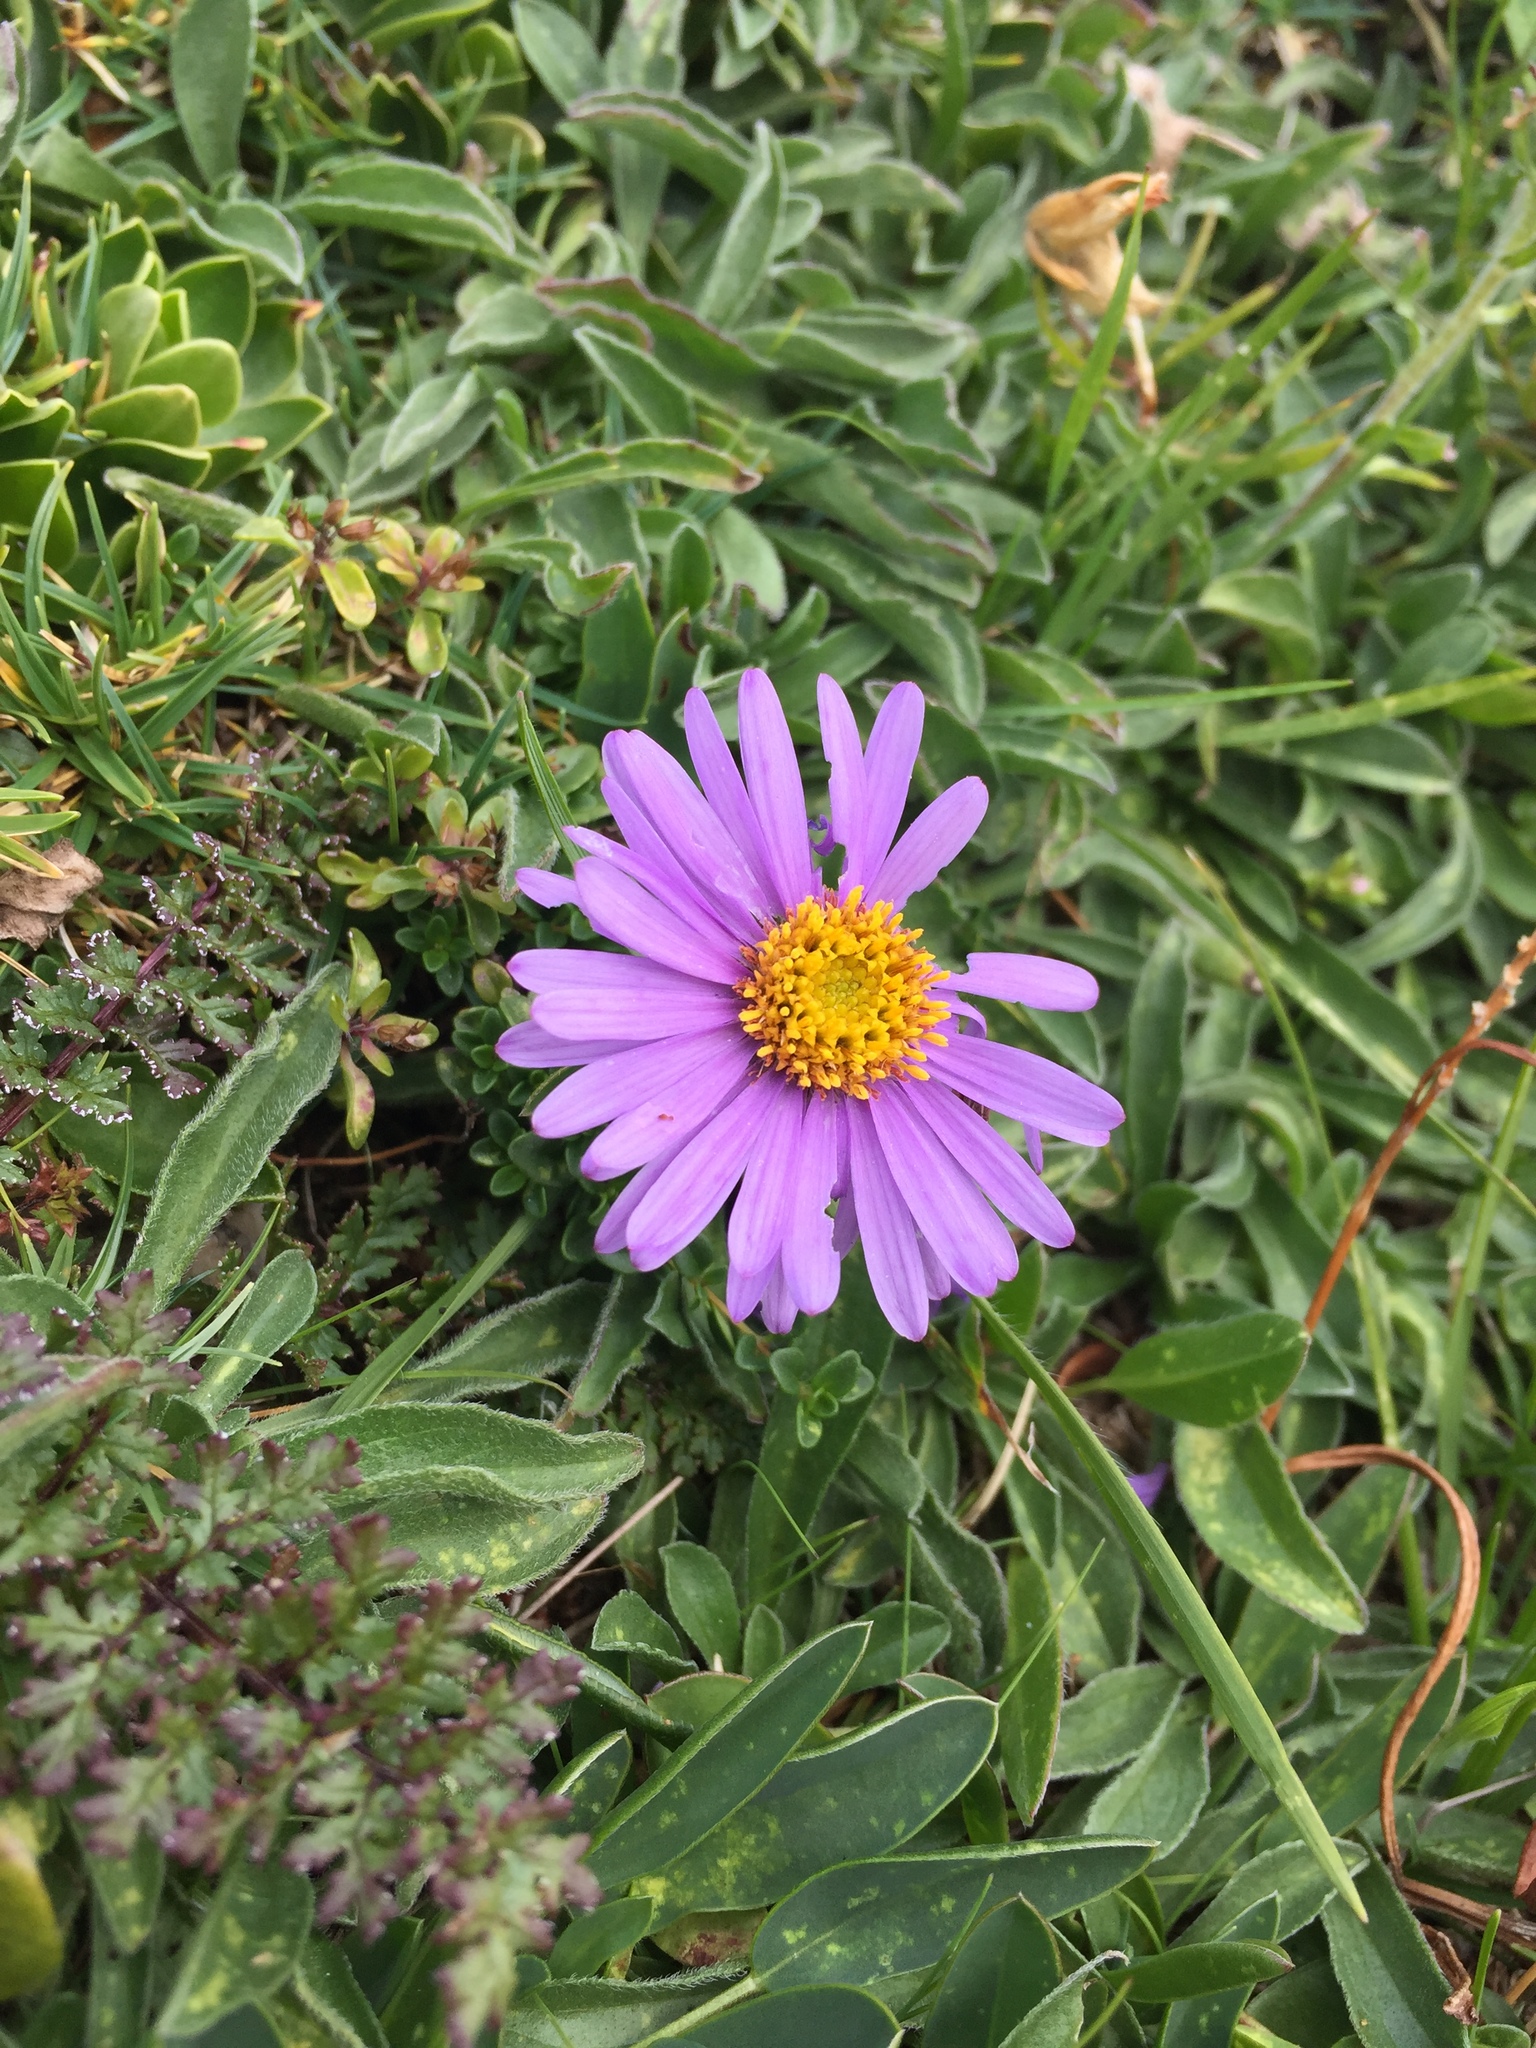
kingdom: Plantae
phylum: Tracheophyta
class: Magnoliopsida
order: Asterales
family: Asteraceae
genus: Aster
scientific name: Aster alpinus
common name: Alpine aster
